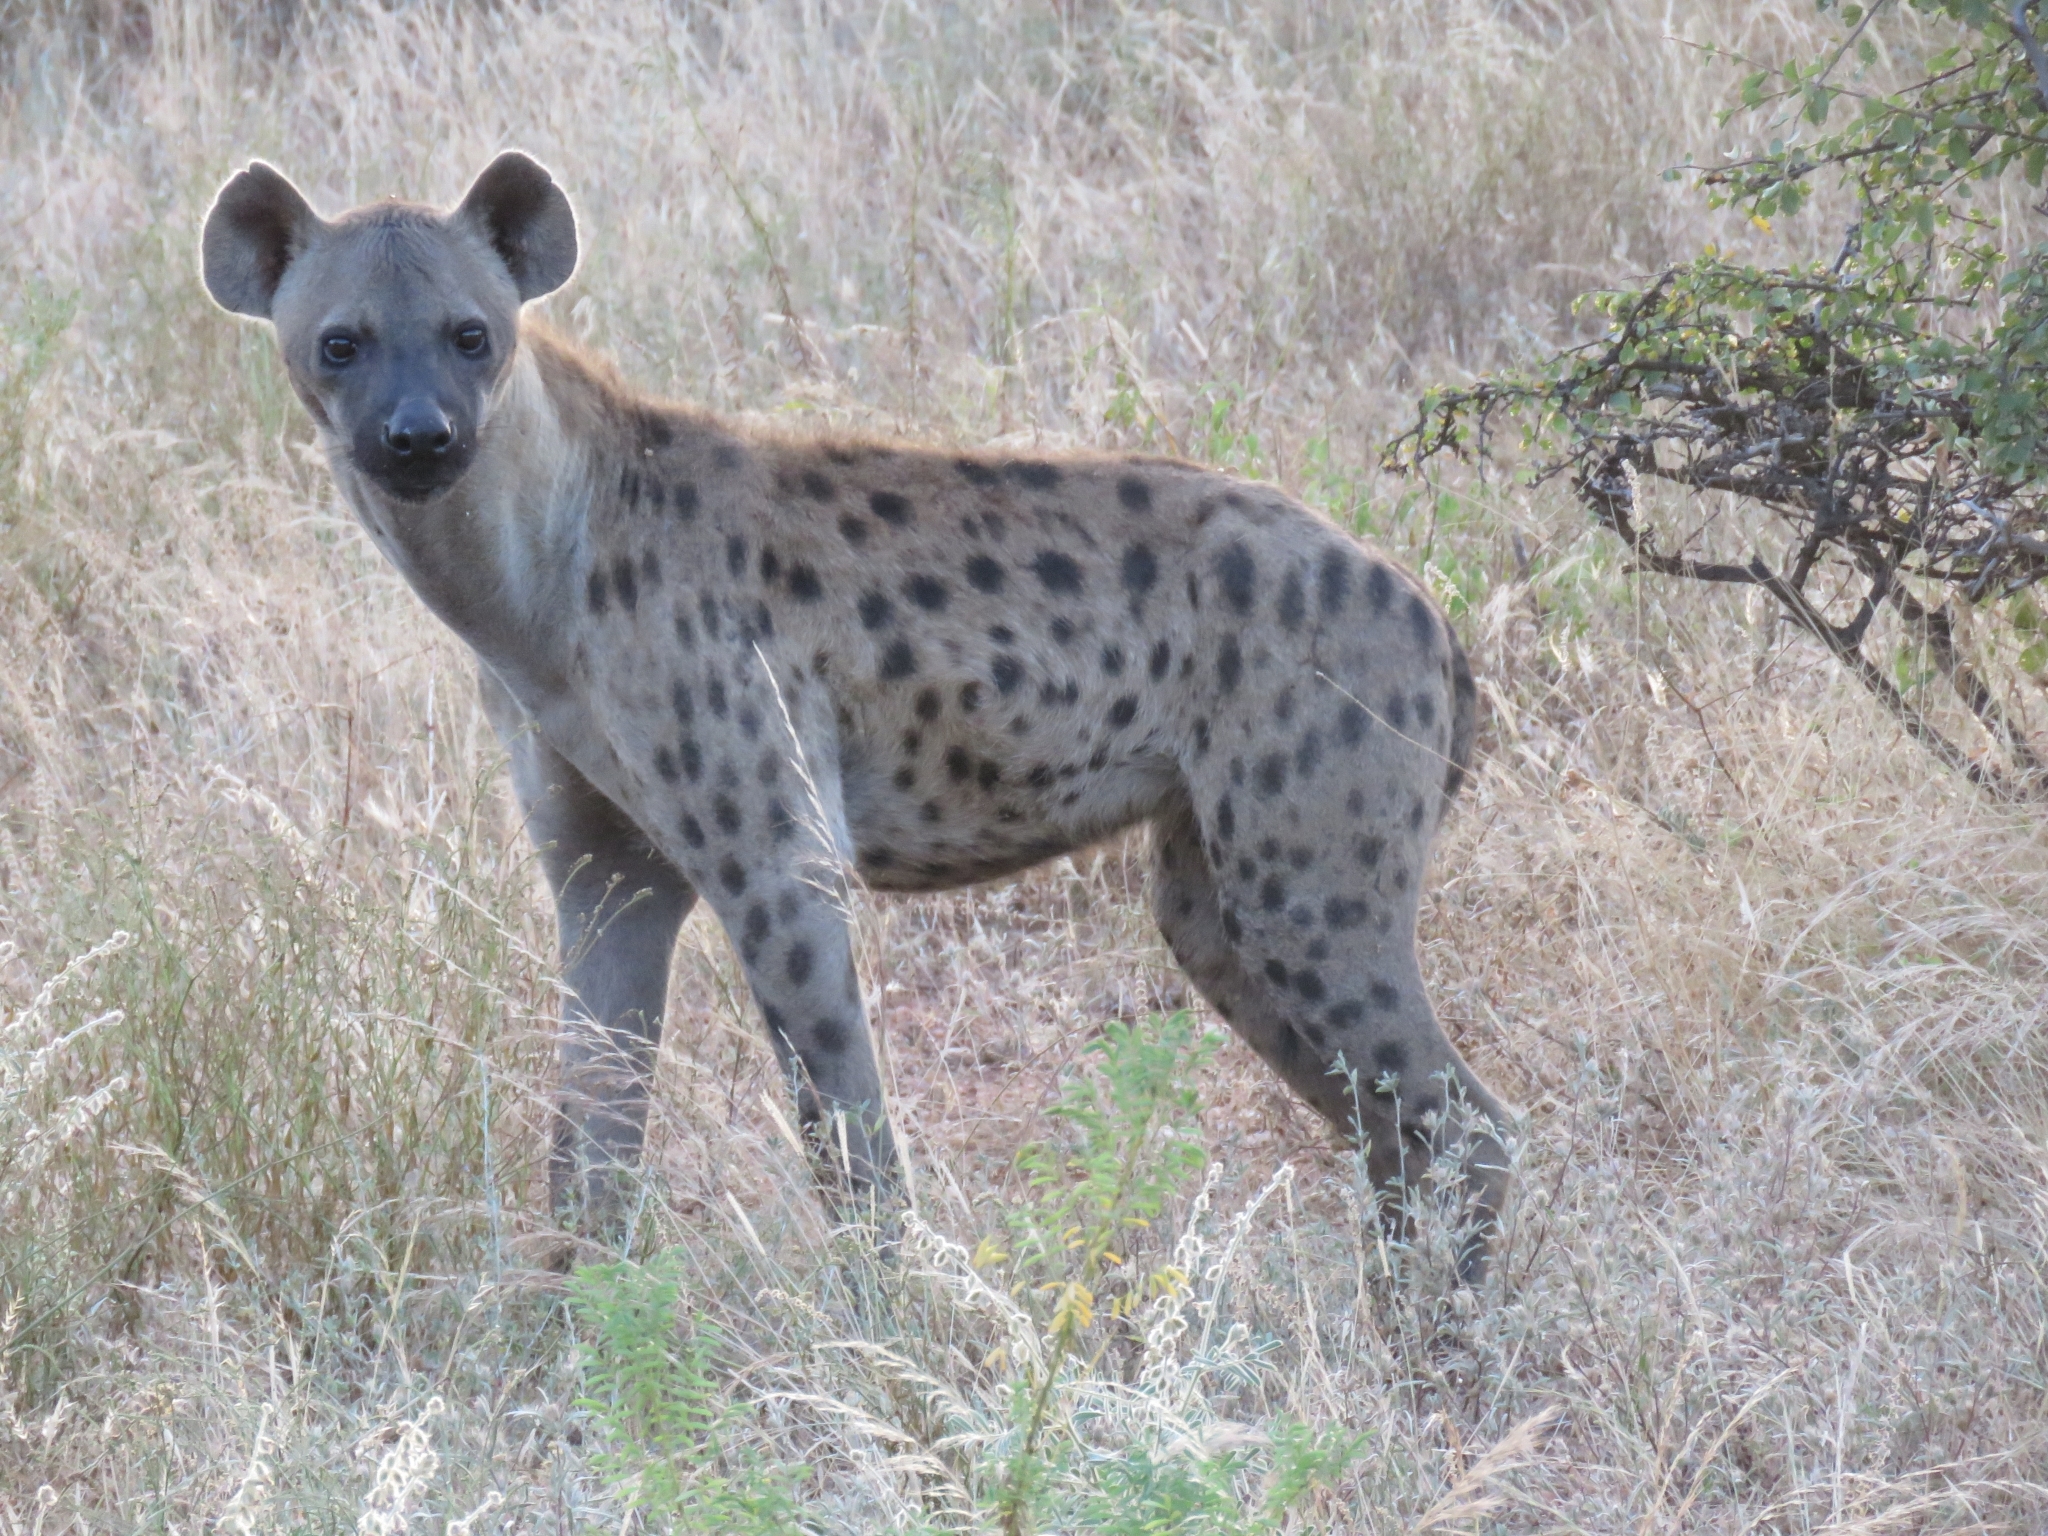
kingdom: Animalia
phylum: Chordata
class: Mammalia
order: Carnivora
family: Hyaenidae
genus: Crocuta
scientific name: Crocuta crocuta
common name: Spotted hyaena
